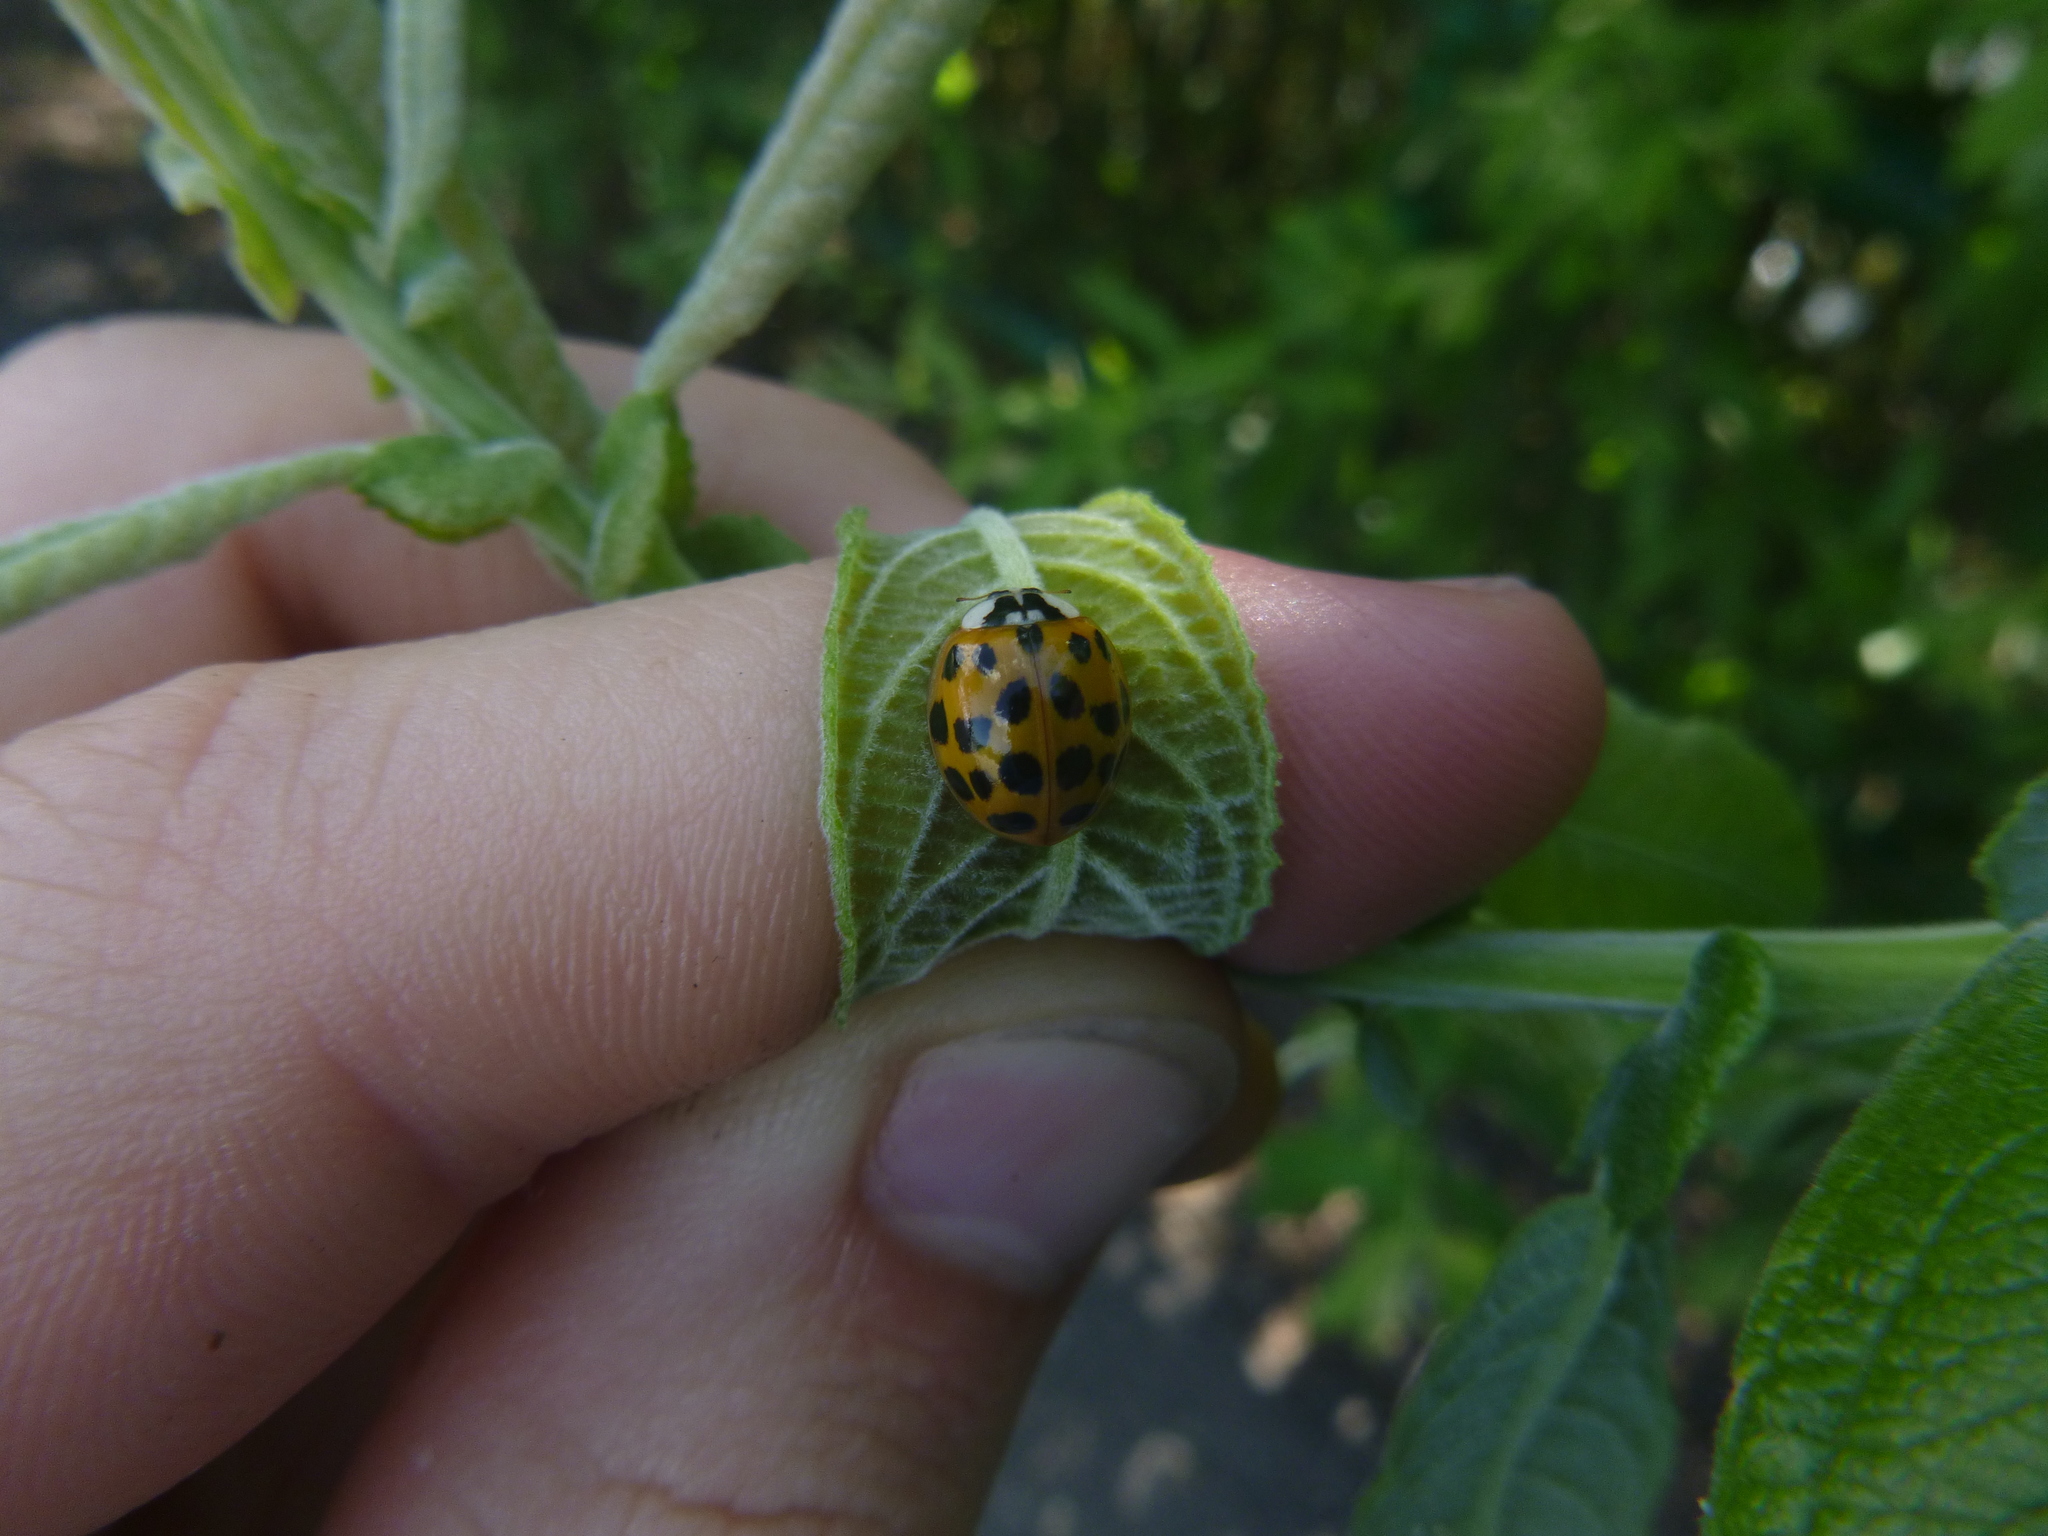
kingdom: Animalia
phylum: Arthropoda
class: Insecta
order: Coleoptera
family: Coccinellidae
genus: Harmonia
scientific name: Harmonia axyridis
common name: Harlequin ladybird
